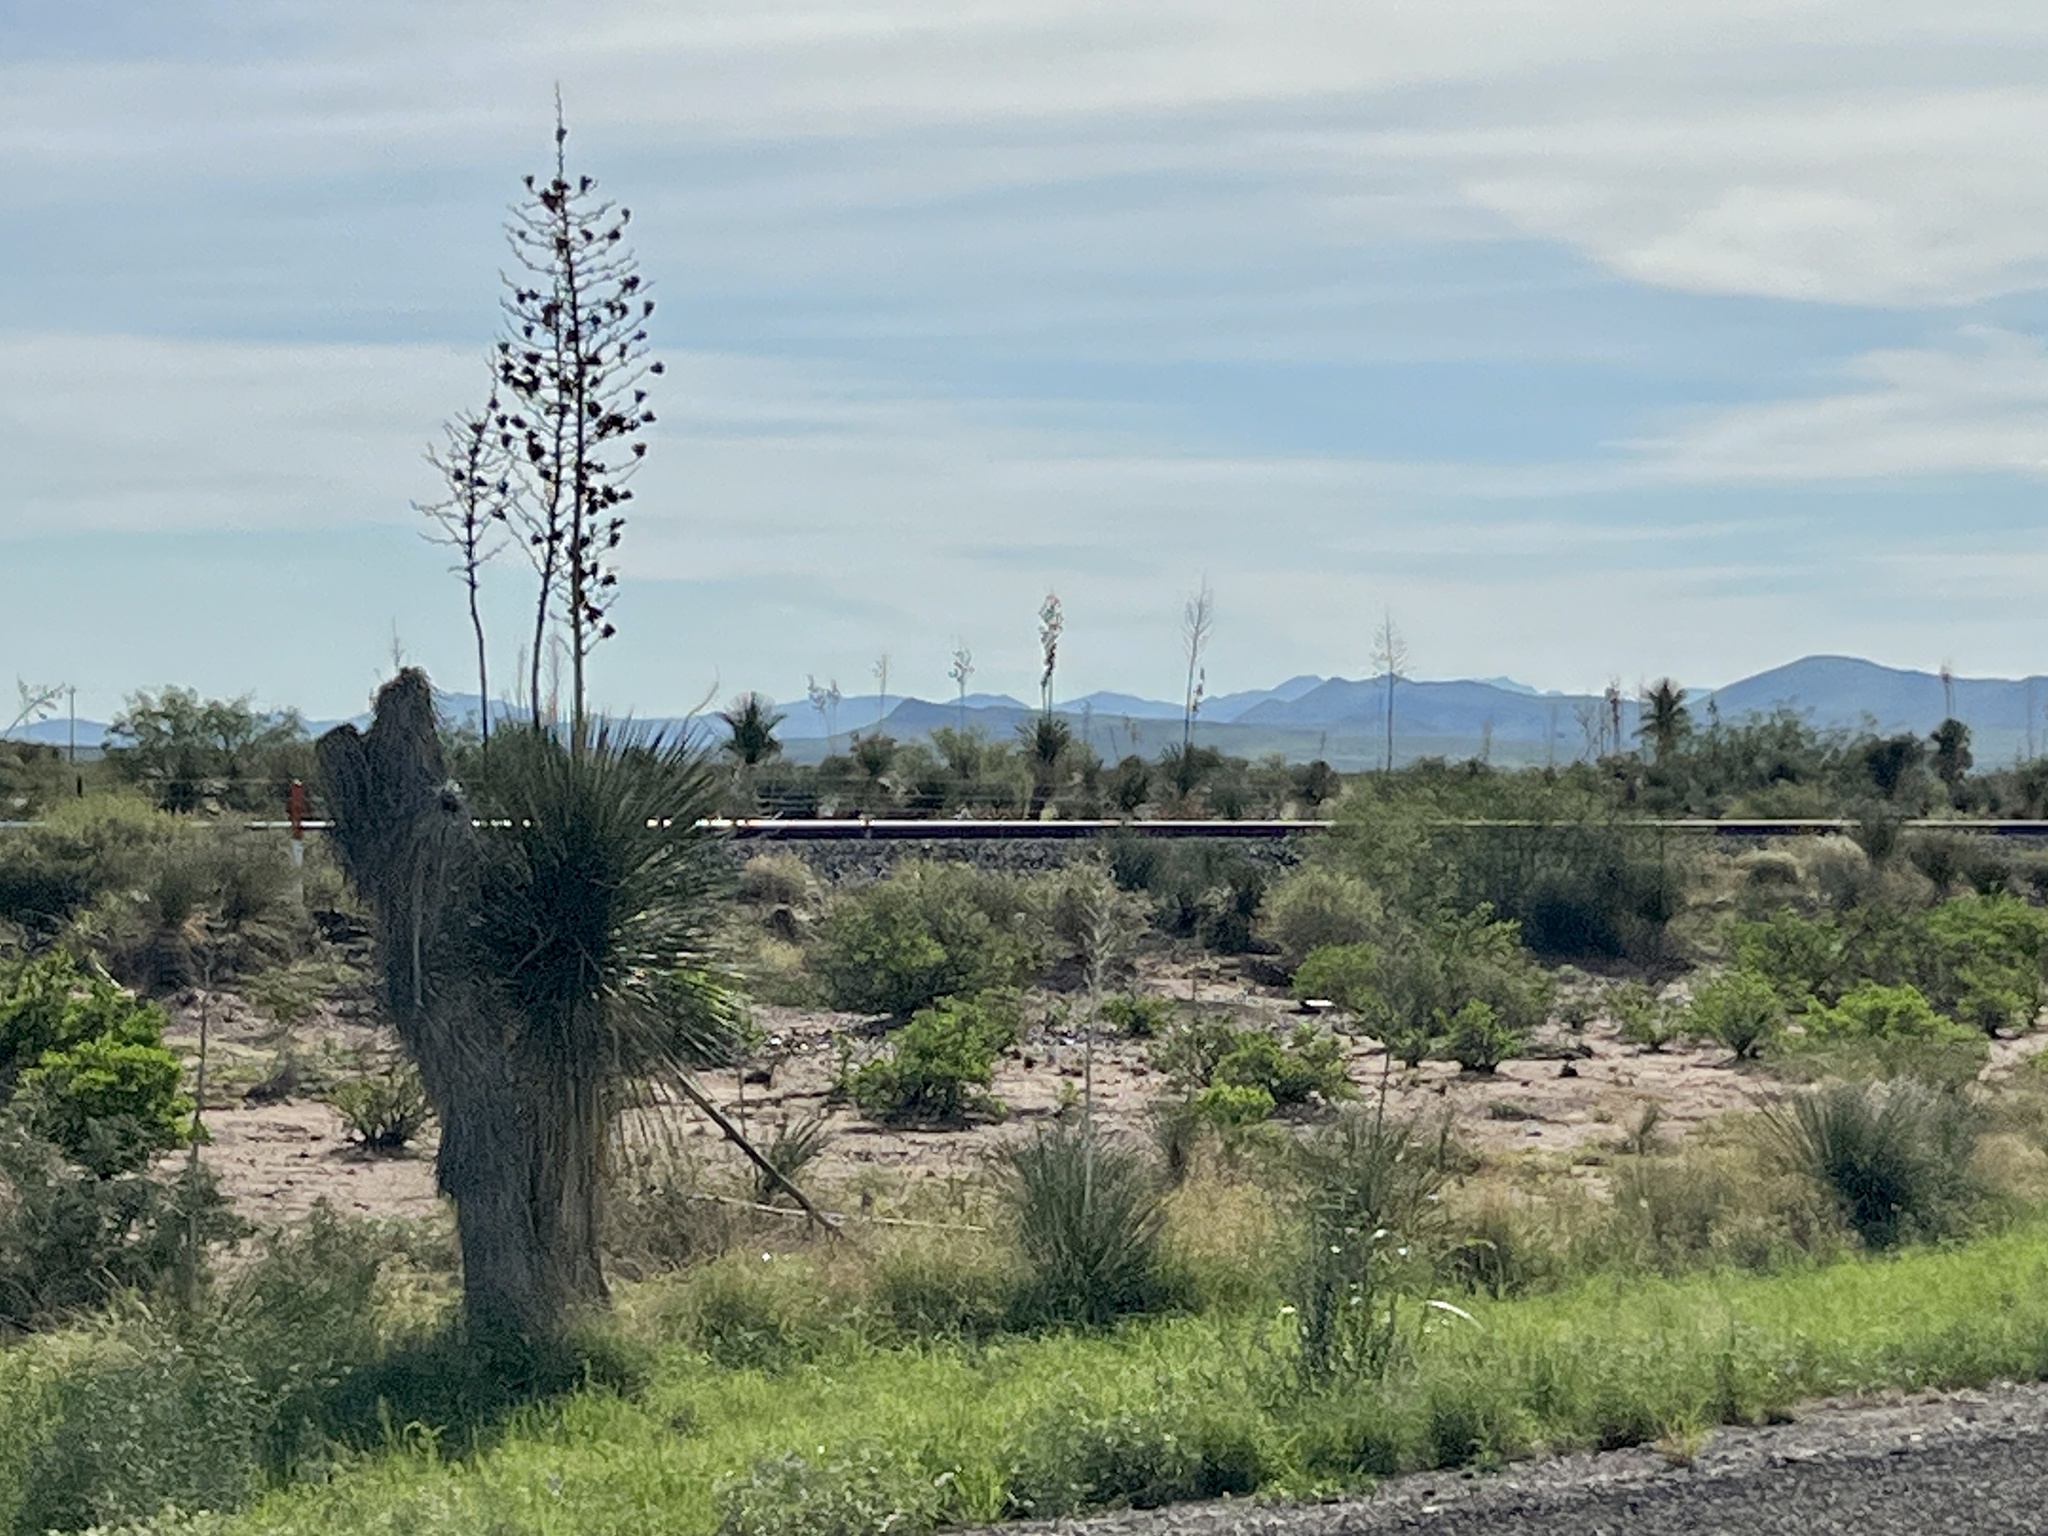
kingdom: Plantae
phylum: Tracheophyta
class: Liliopsida
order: Asparagales
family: Asparagaceae
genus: Yucca
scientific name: Yucca elata
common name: Palmella
